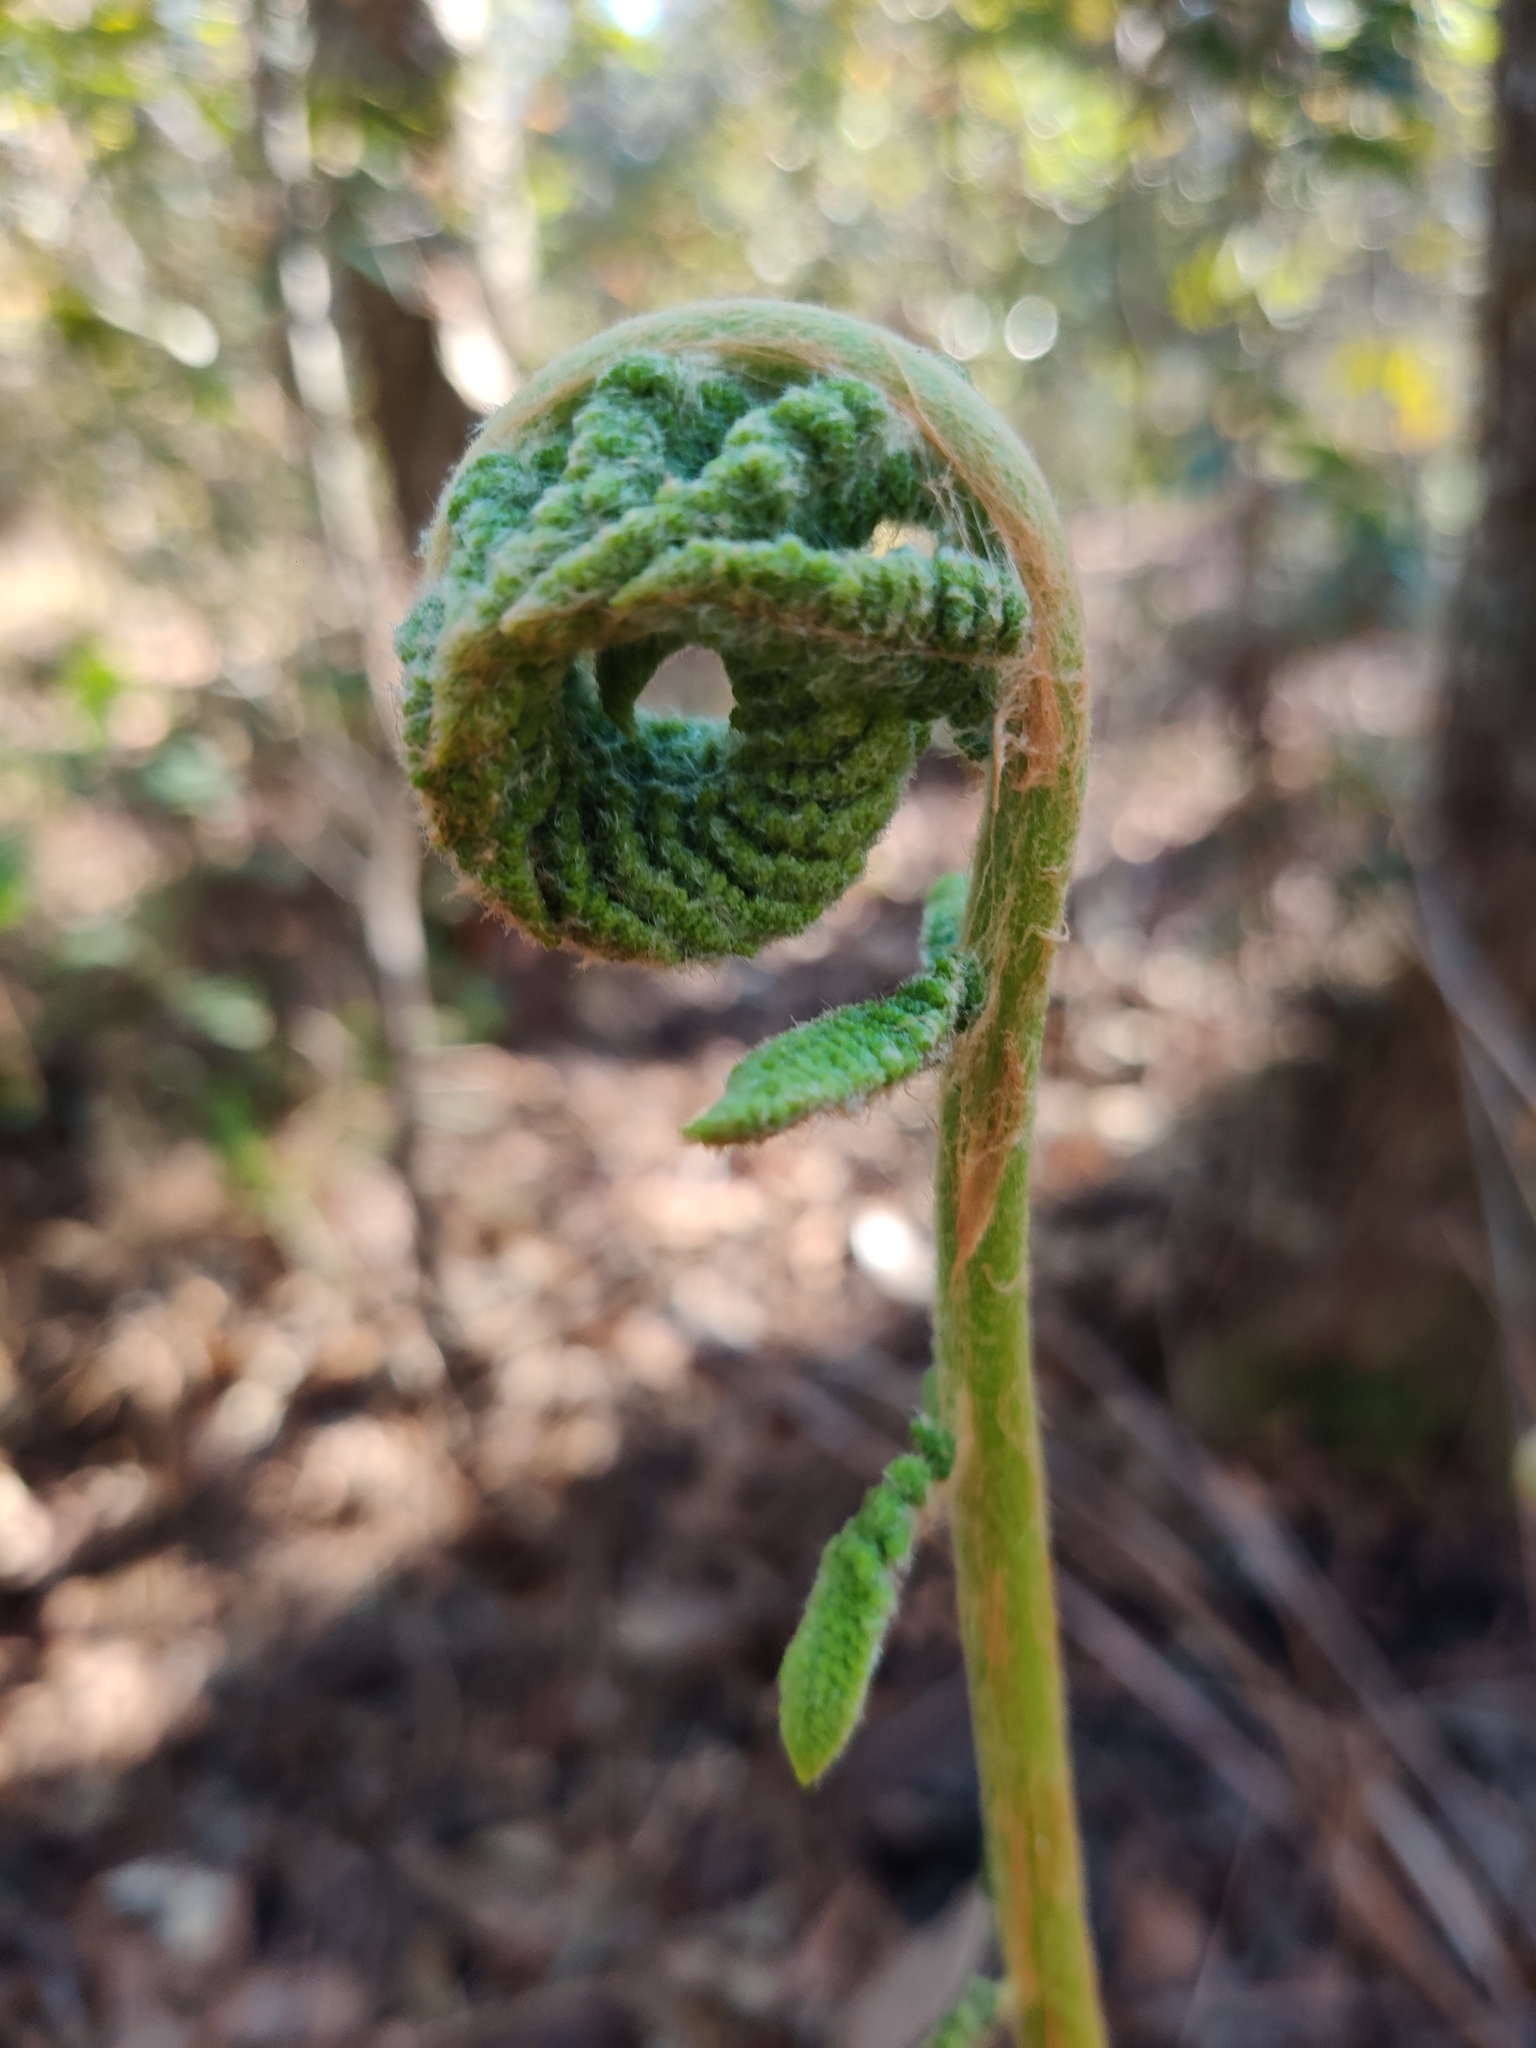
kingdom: Plantae
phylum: Tracheophyta
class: Polypodiopsida
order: Osmundales
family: Osmundaceae
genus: Osmundastrum
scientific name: Osmundastrum cinnamomeum
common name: Cinnamon fern
